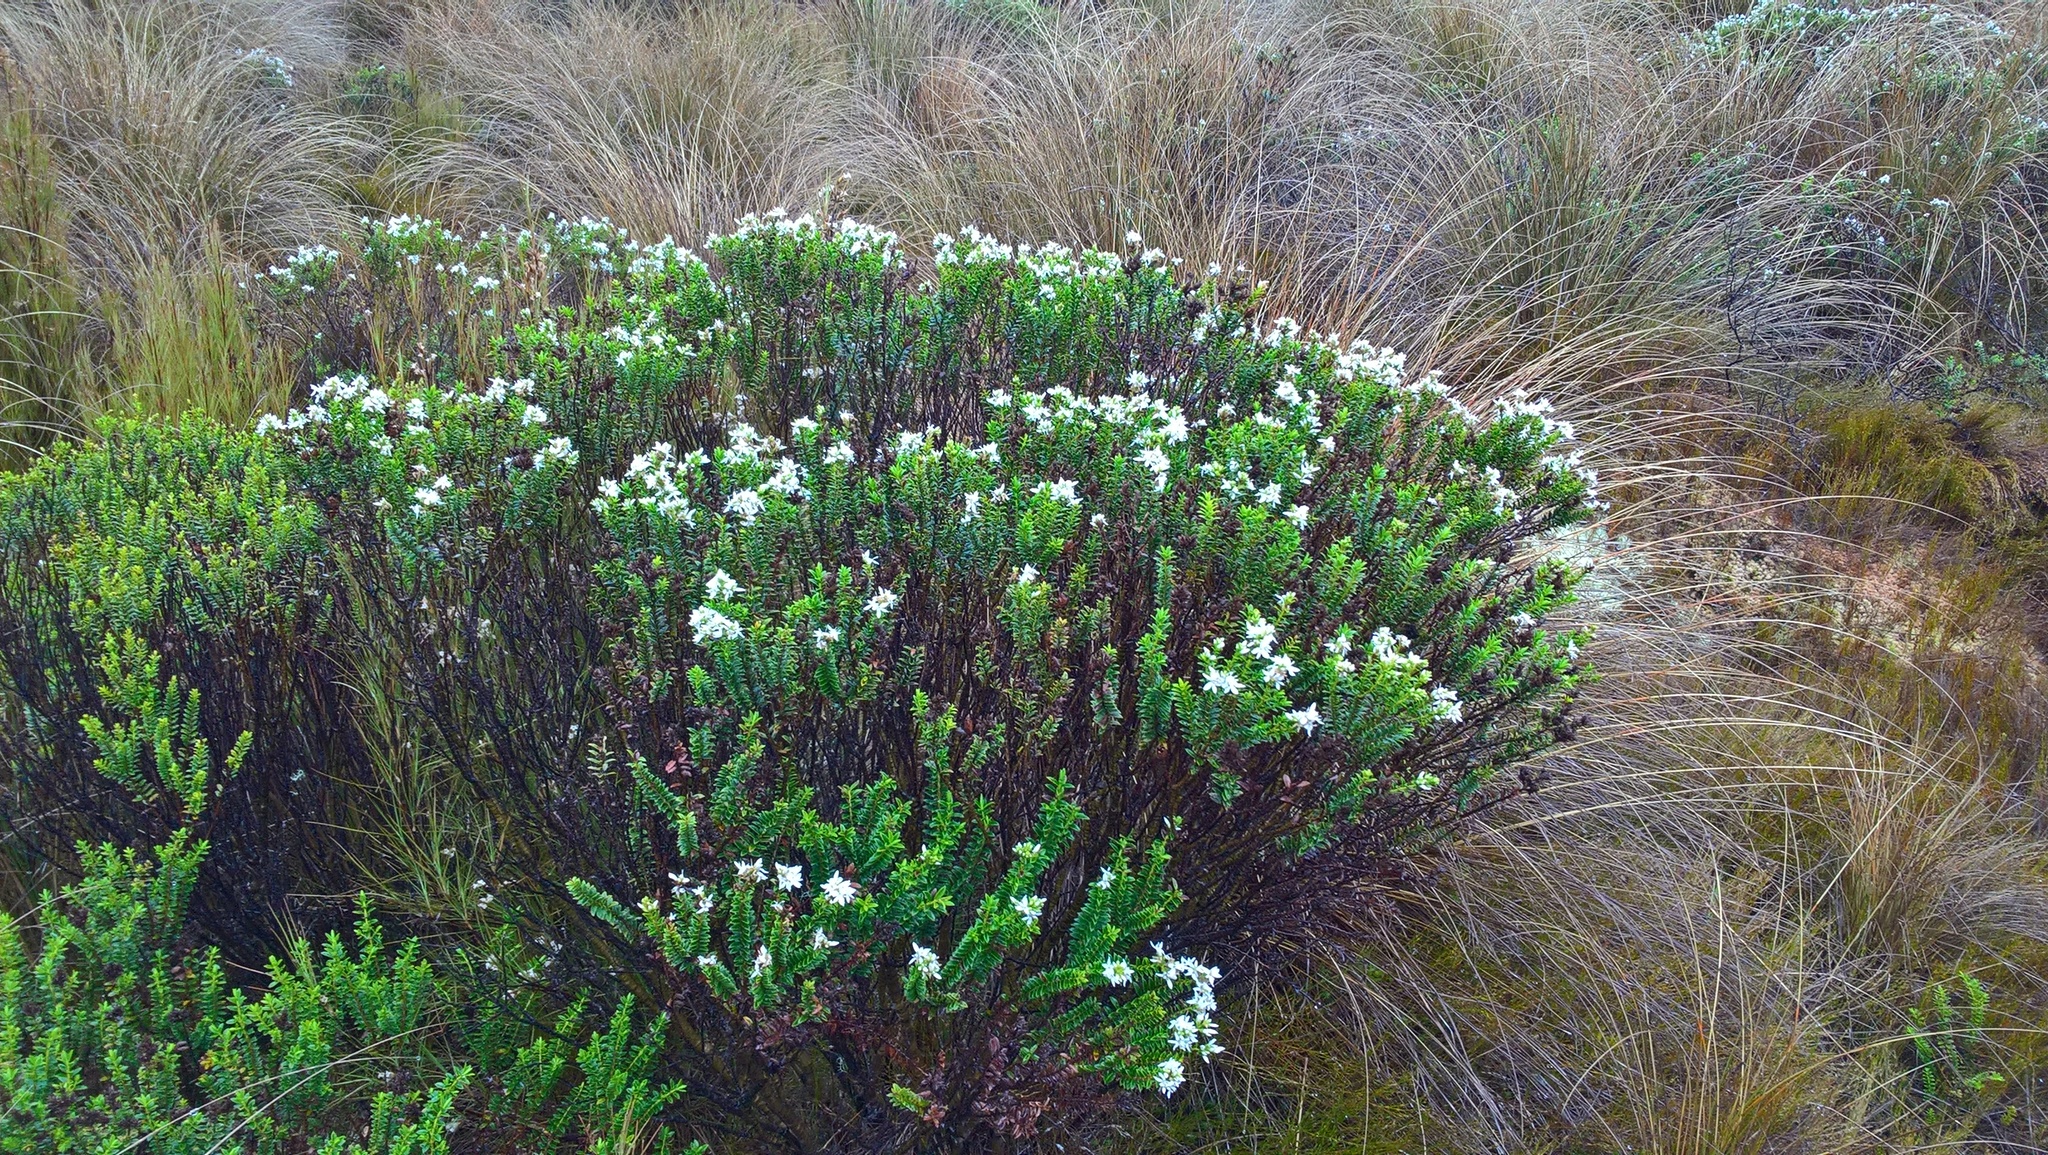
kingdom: Plantae
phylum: Tracheophyta
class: Magnoliopsida
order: Lamiales
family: Plantaginaceae
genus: Veronica
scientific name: Veronica odora
